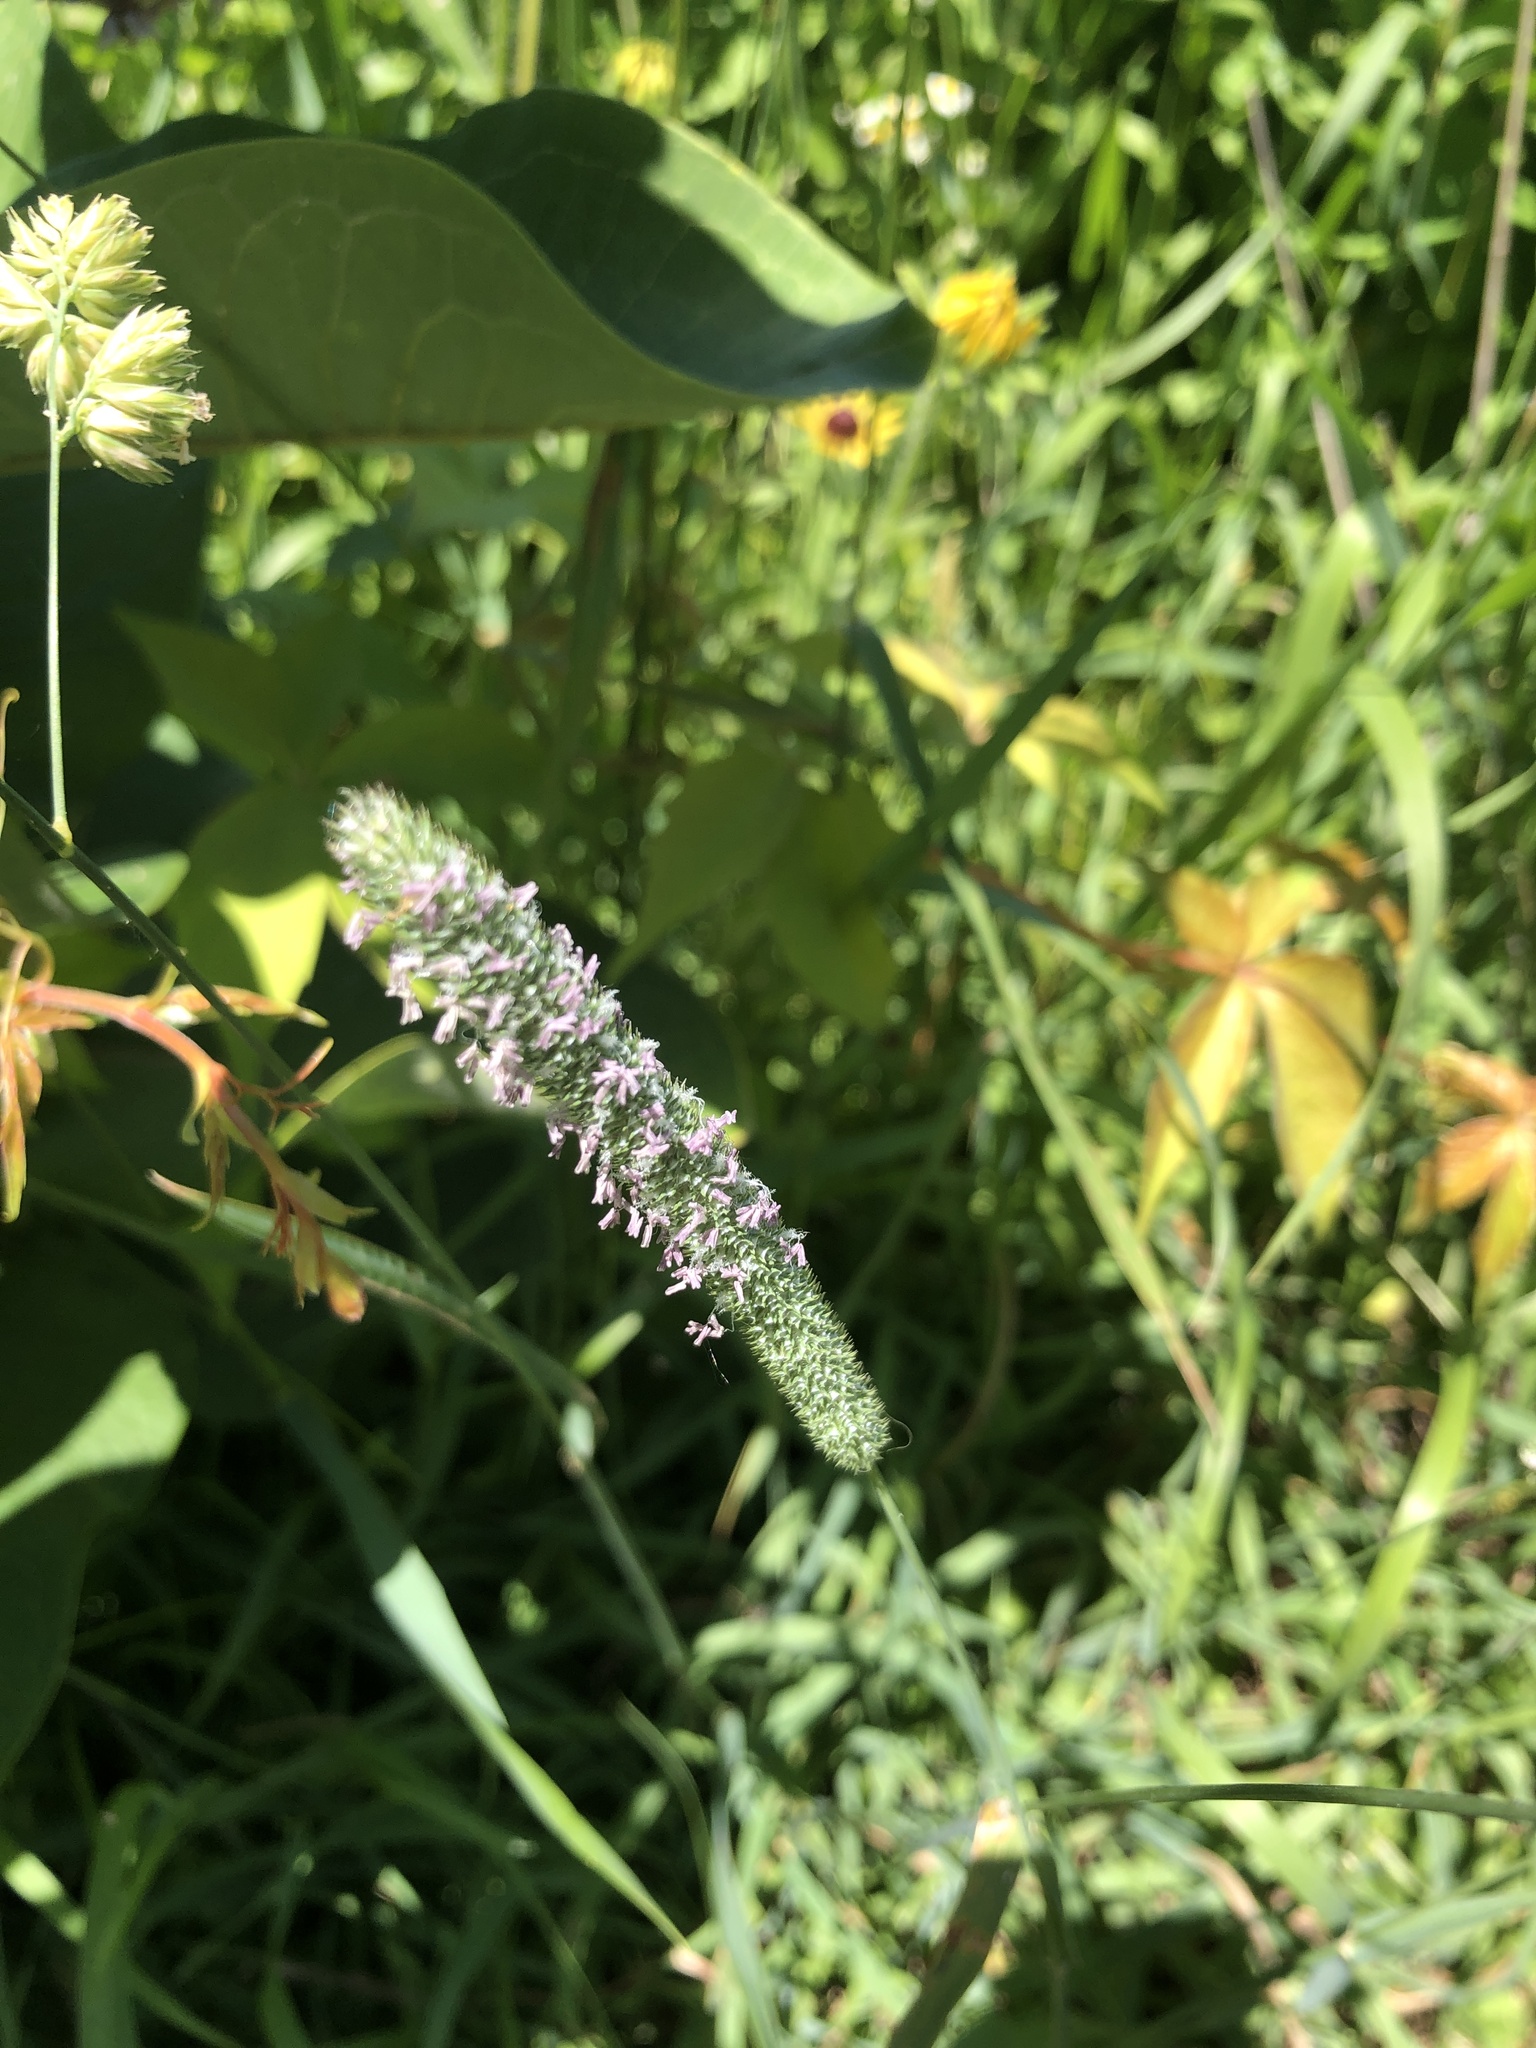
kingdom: Plantae
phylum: Tracheophyta
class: Liliopsida
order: Poales
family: Poaceae
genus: Phleum
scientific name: Phleum pratense
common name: Timothy grass
